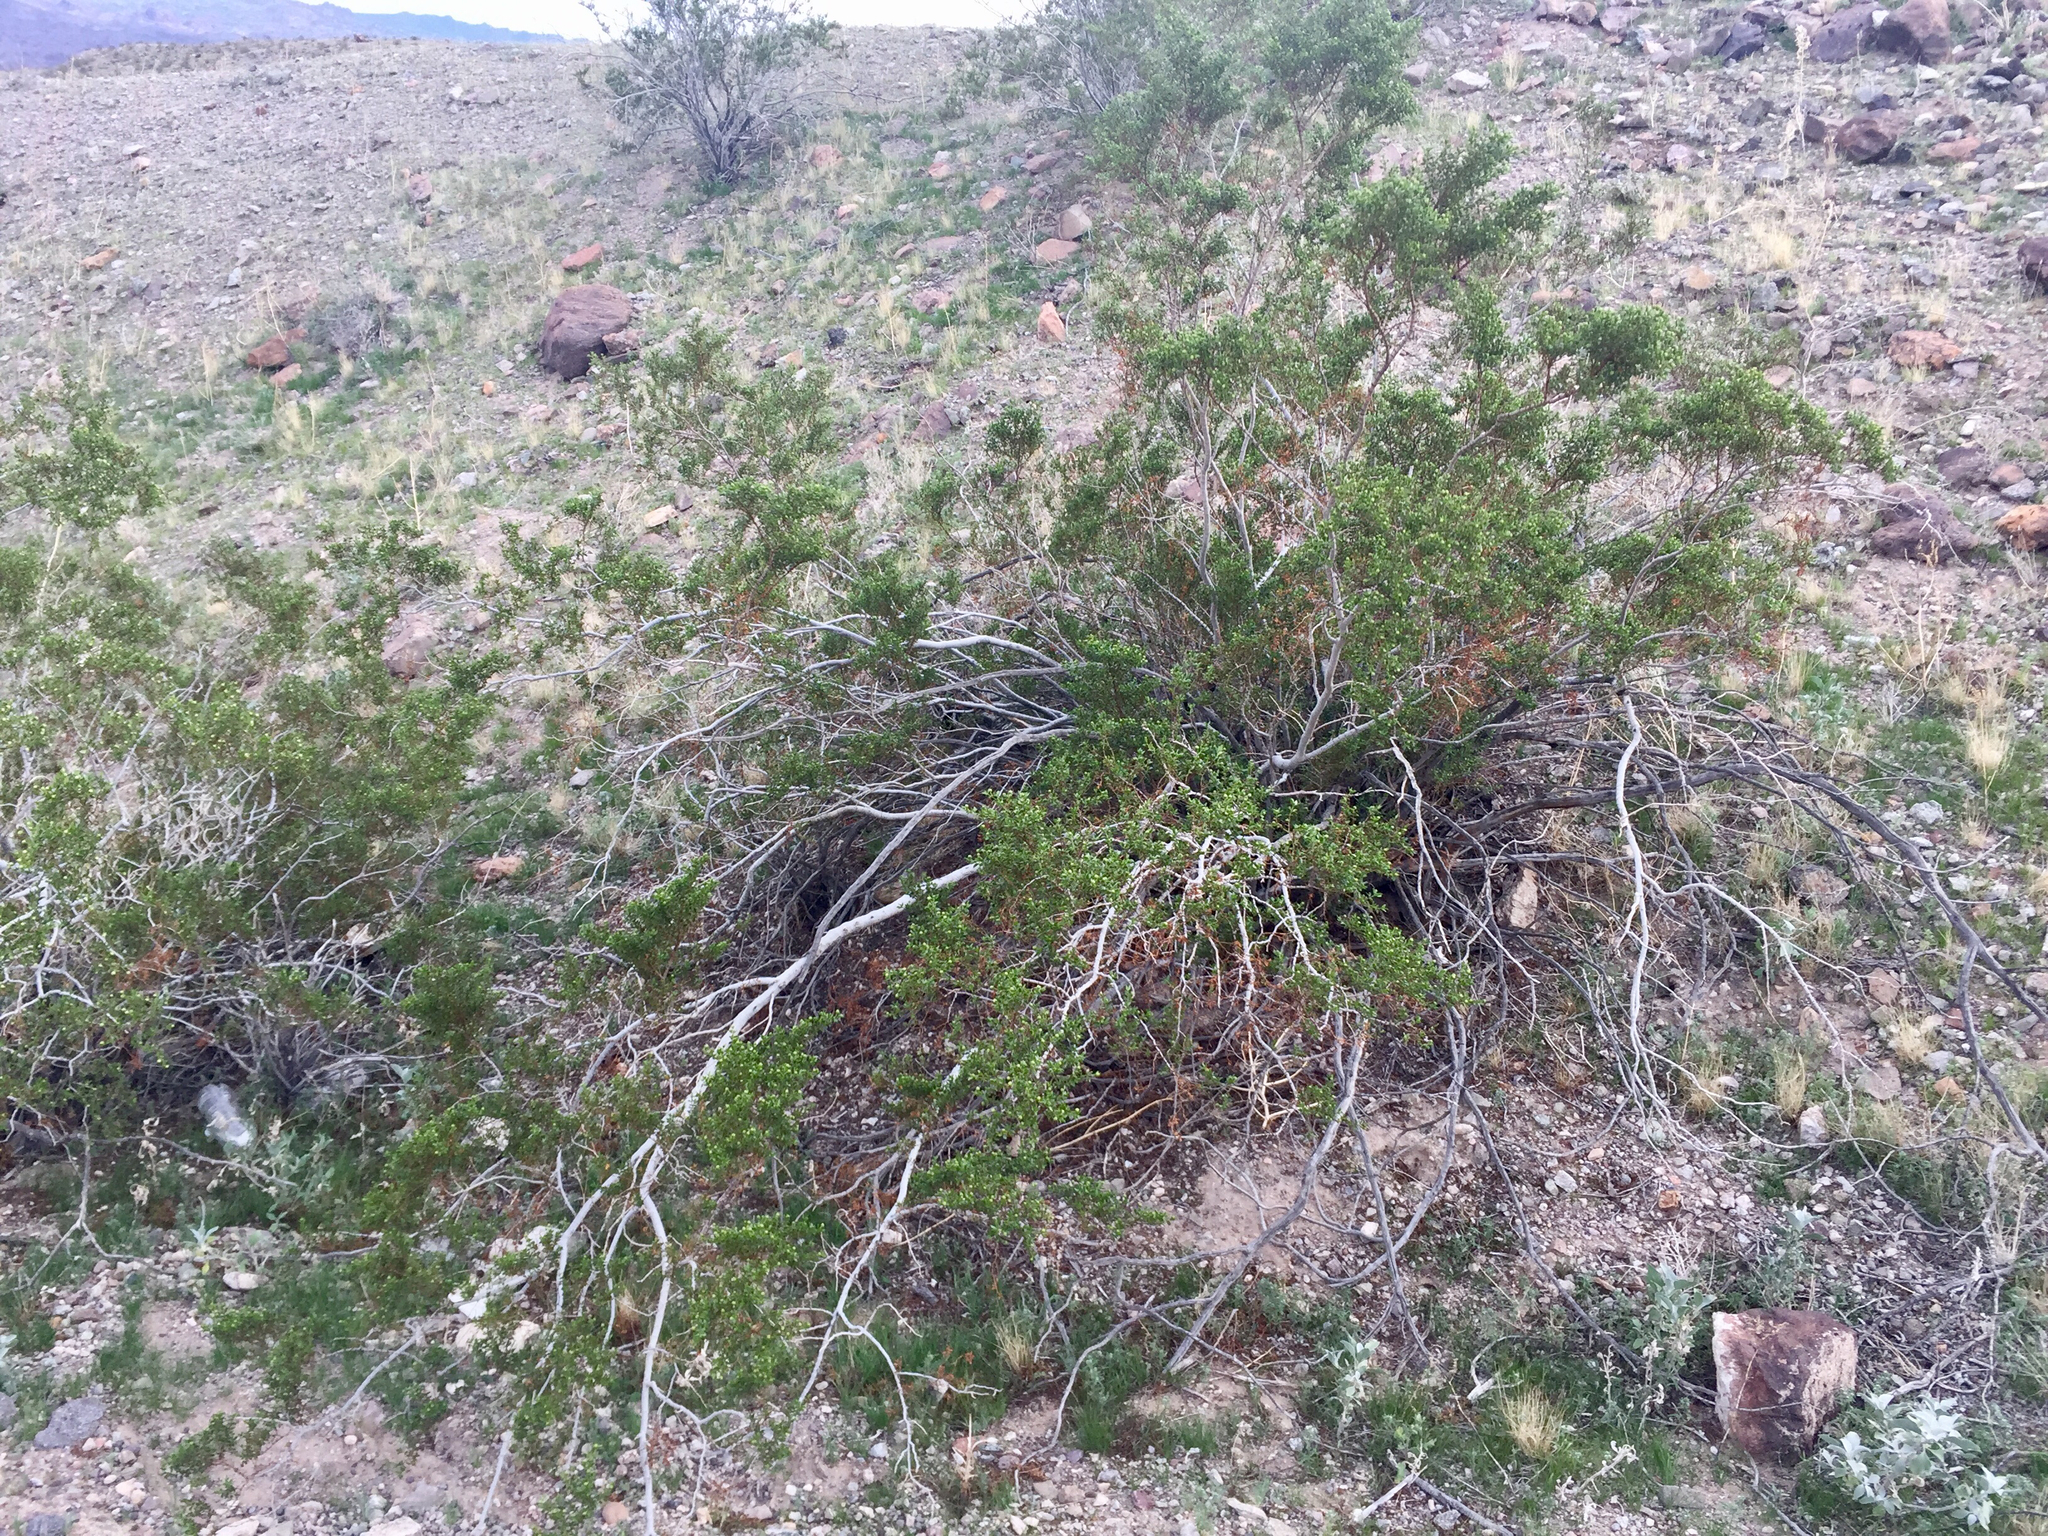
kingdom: Plantae
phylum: Tracheophyta
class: Magnoliopsida
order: Zygophyllales
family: Zygophyllaceae
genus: Larrea
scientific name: Larrea tridentata
